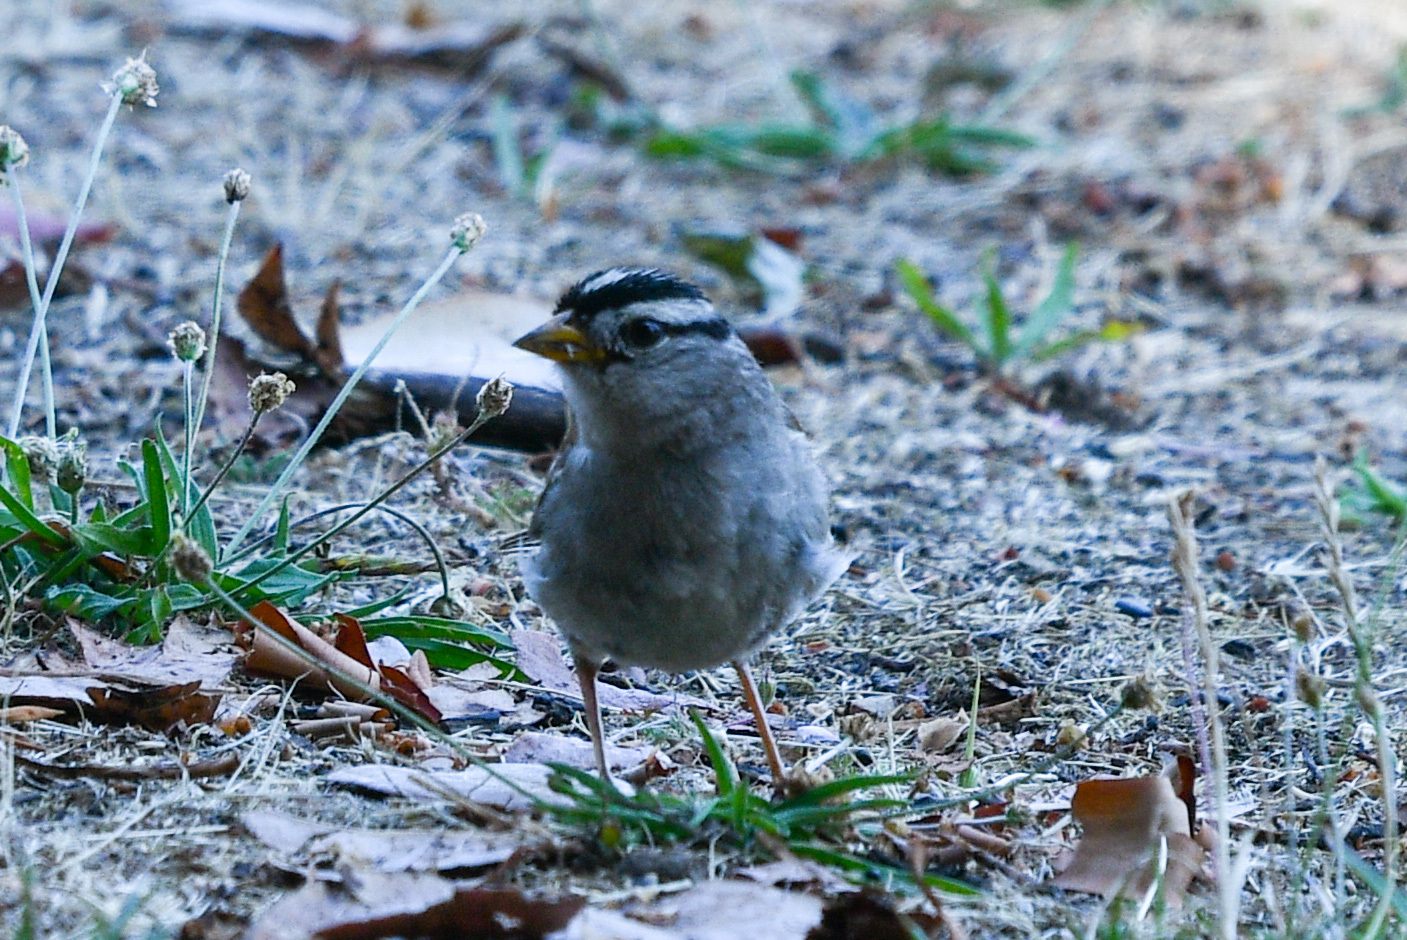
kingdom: Animalia
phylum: Chordata
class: Aves
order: Passeriformes
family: Passerellidae
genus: Zonotrichia
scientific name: Zonotrichia leucophrys
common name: White-crowned sparrow
